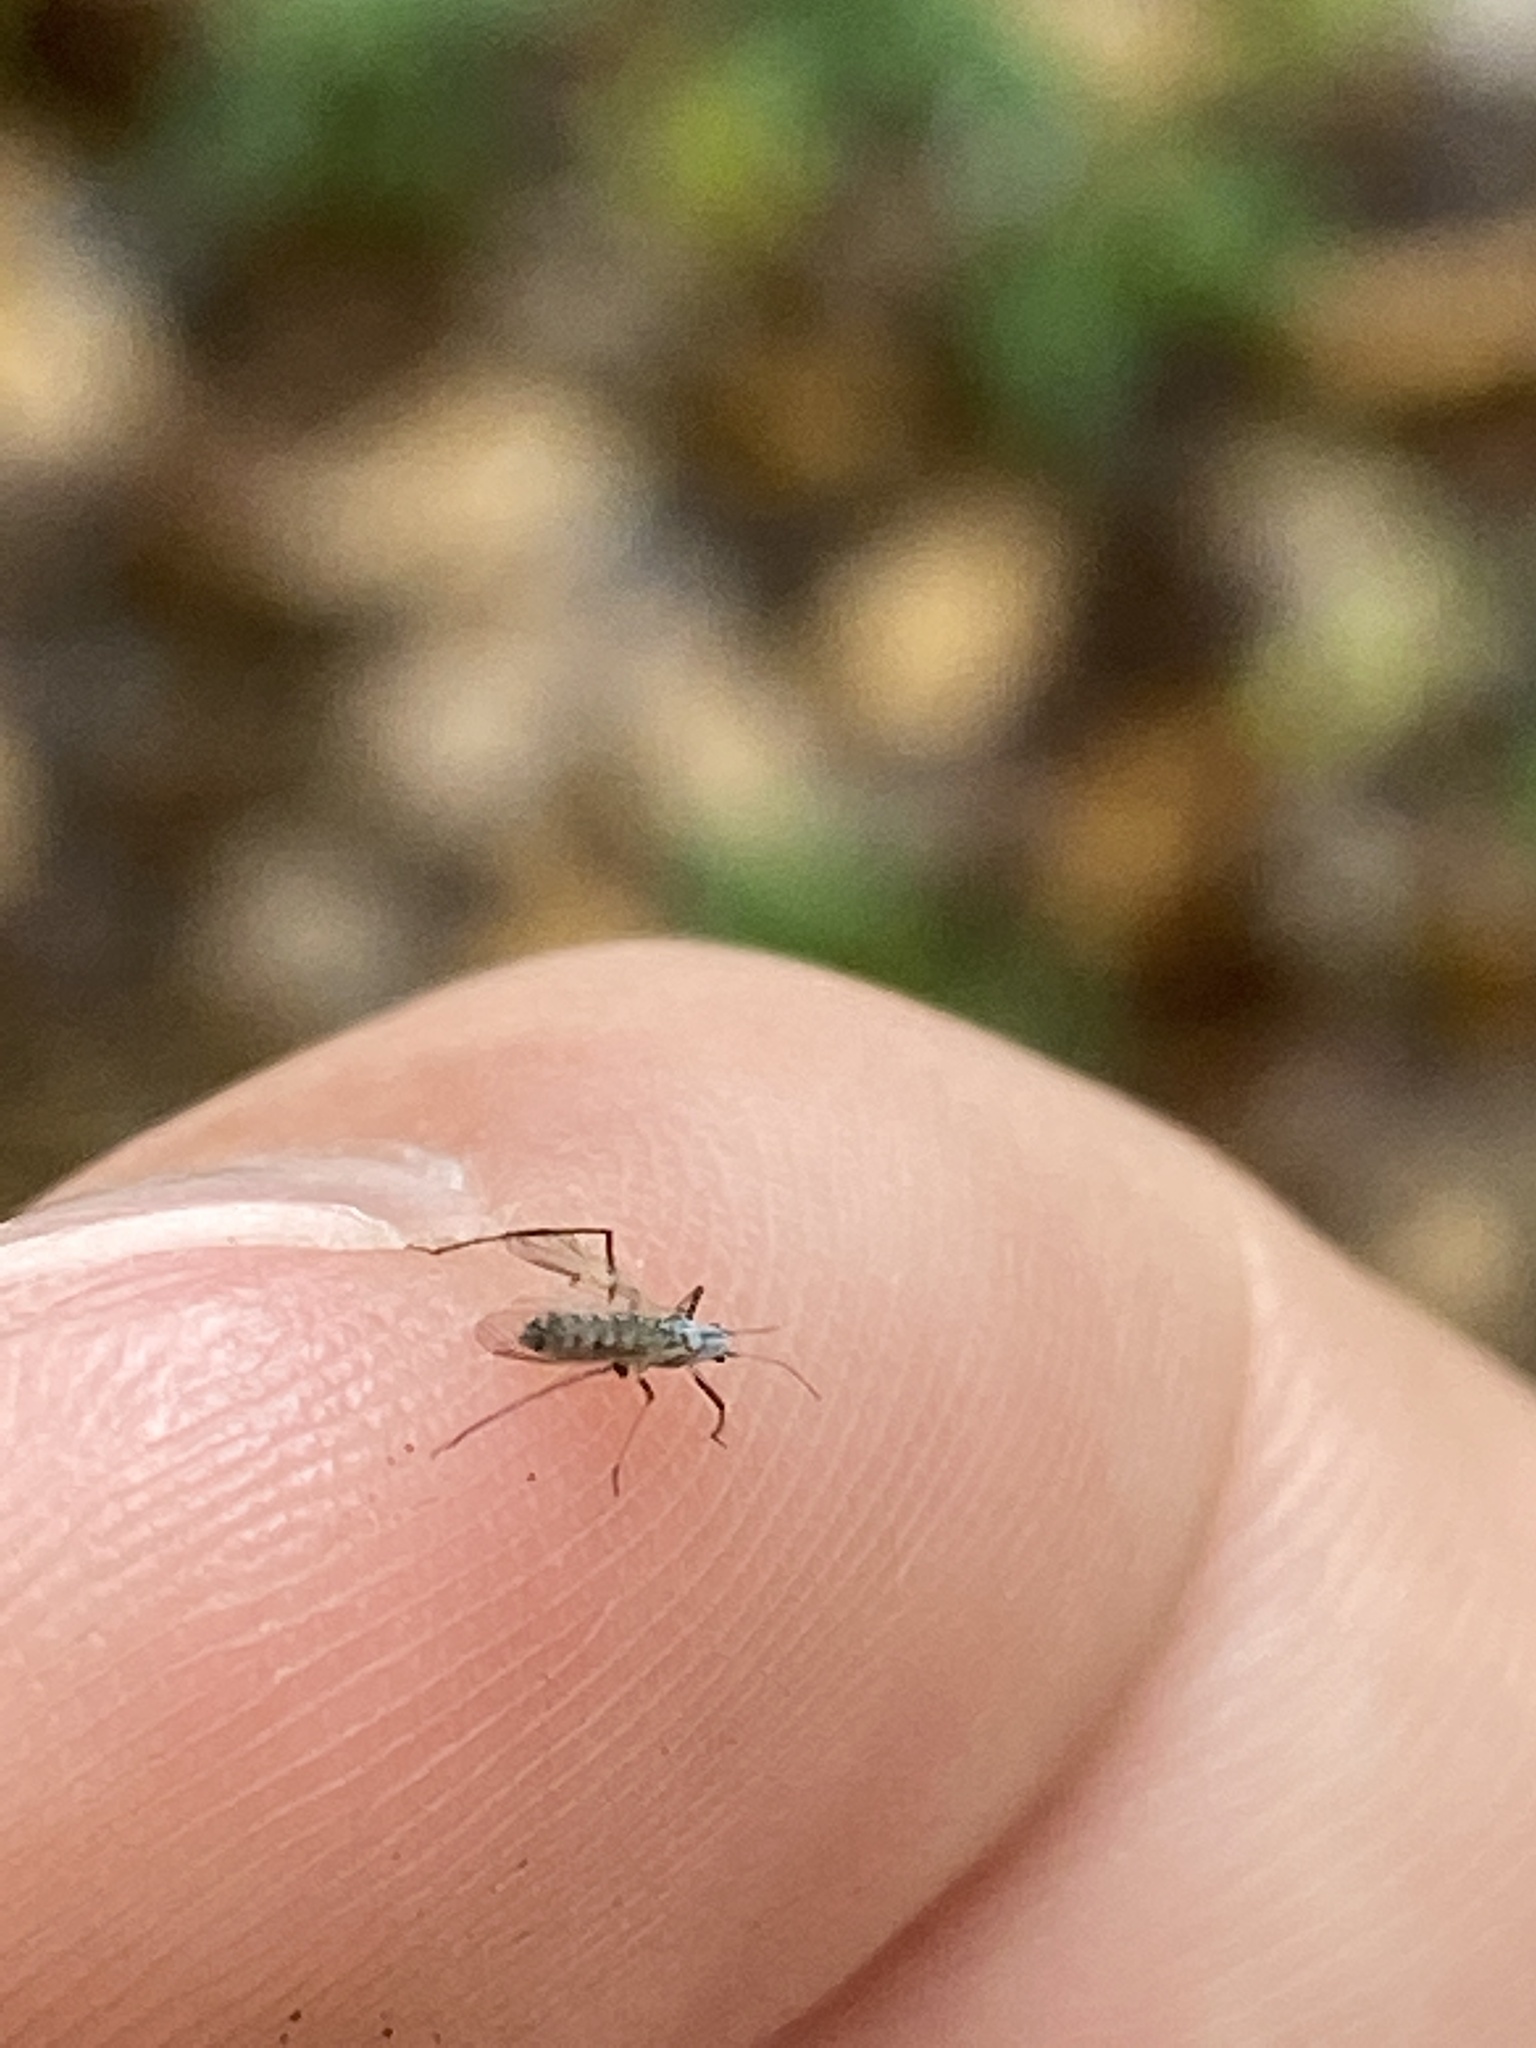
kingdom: Animalia
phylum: Arthropoda
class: Insecta
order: Hemiptera
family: Aphididae
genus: Eulachnus
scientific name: Eulachnus rileyi
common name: Active gray pine needle aphid
